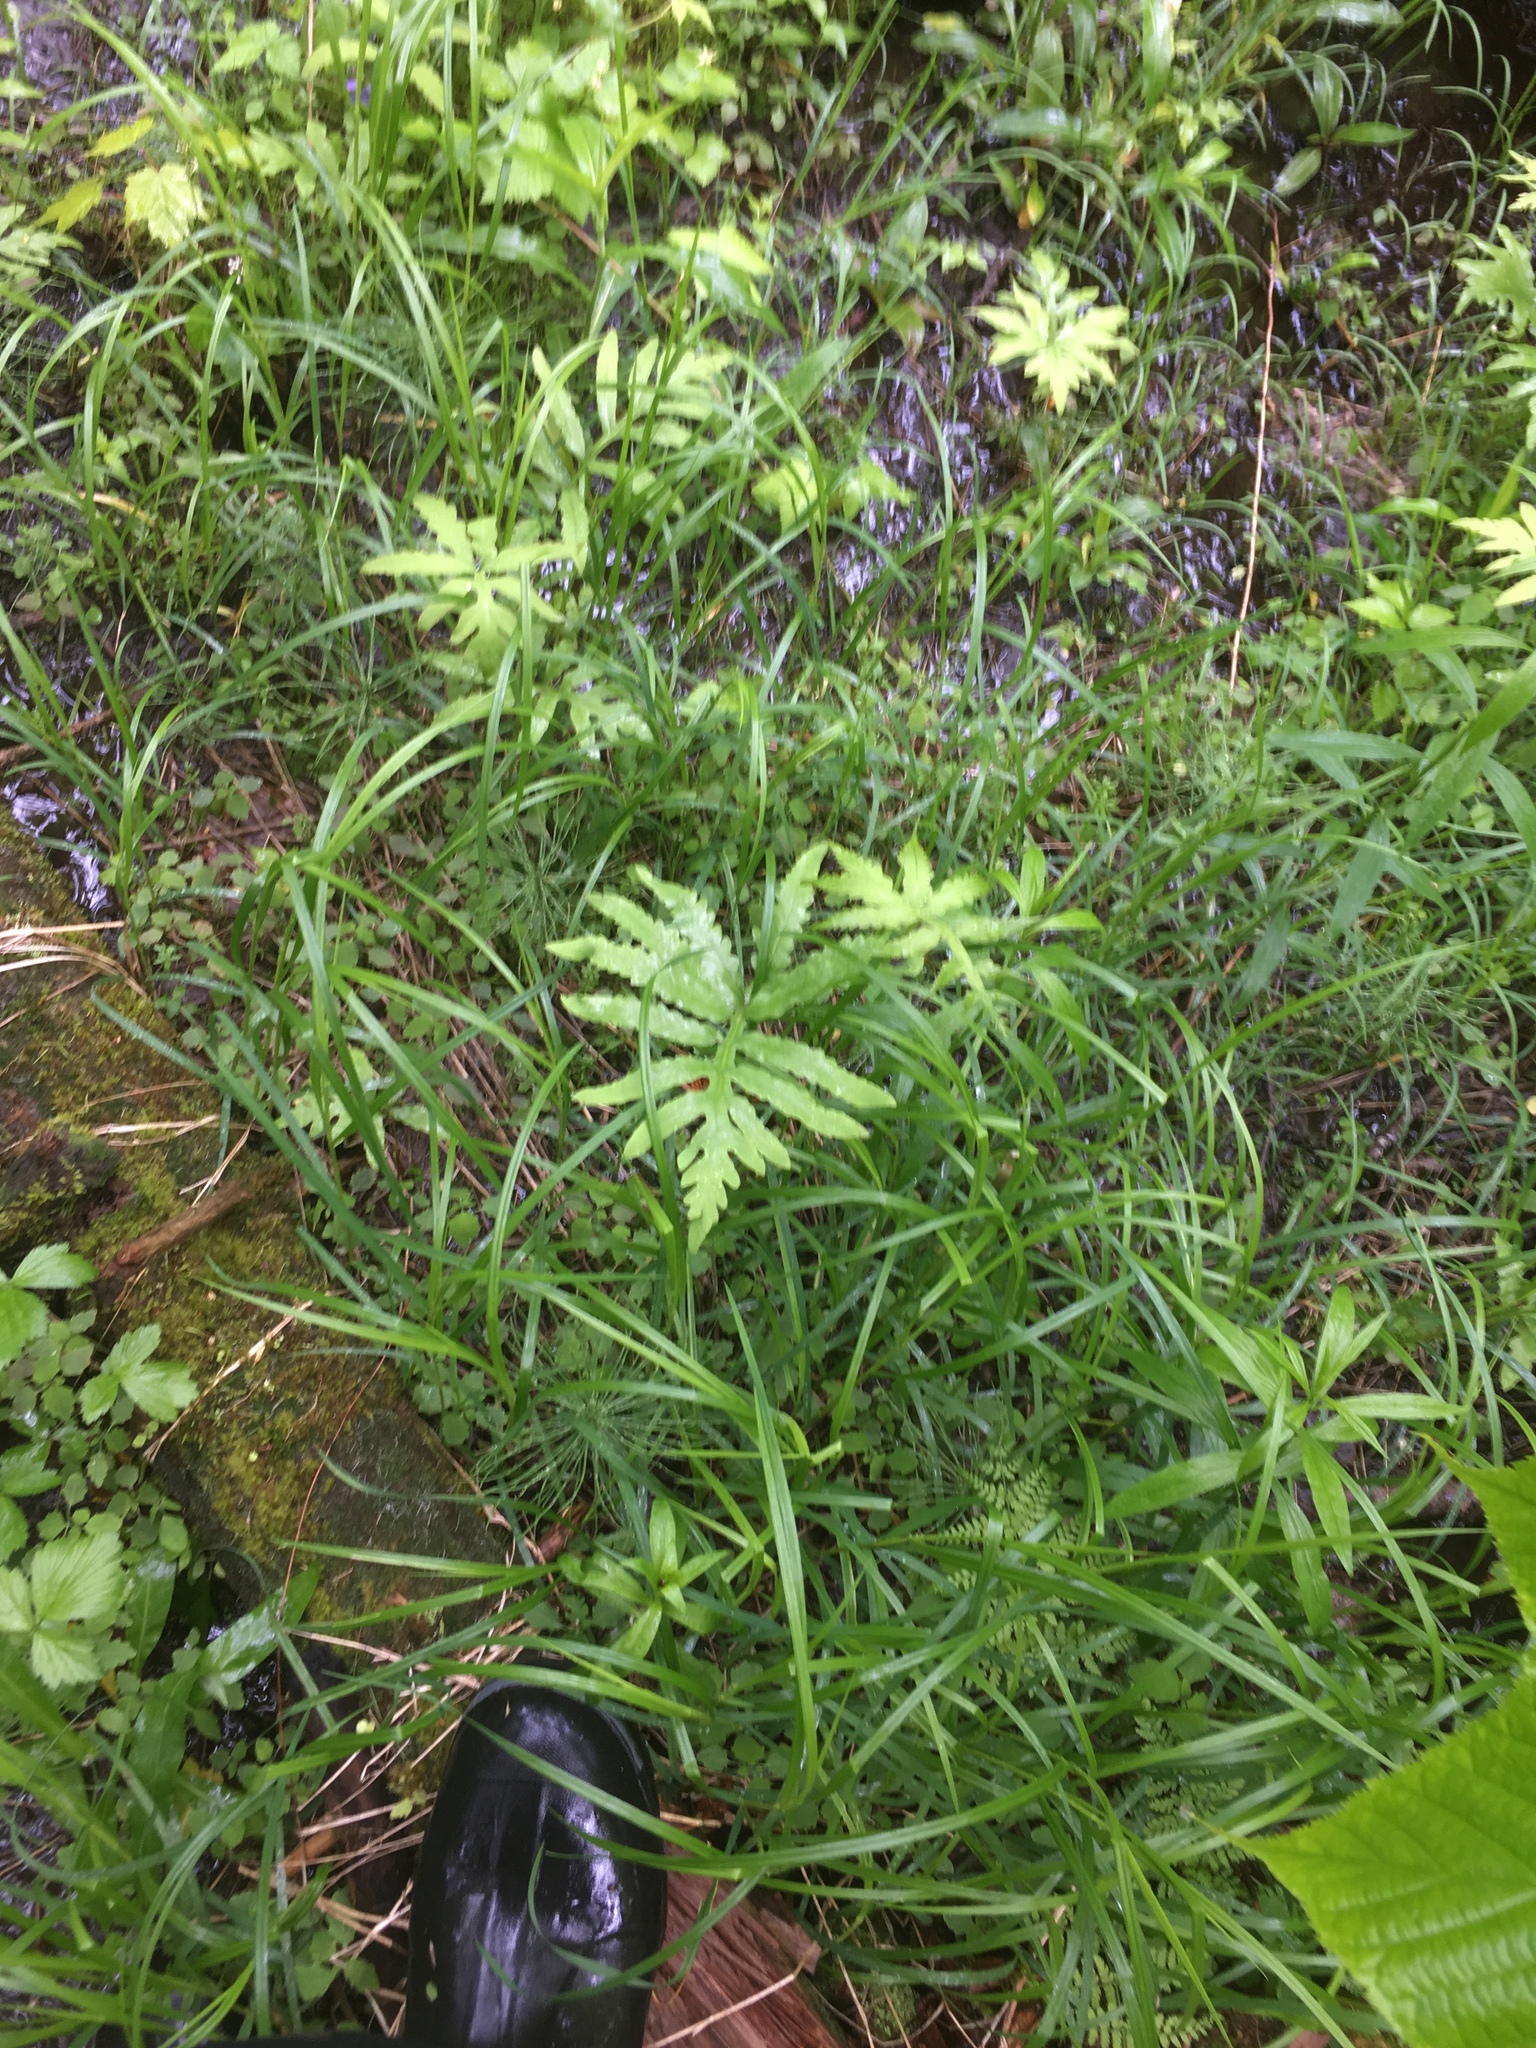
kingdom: Plantae
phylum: Tracheophyta
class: Polypodiopsida
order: Polypodiales
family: Onocleaceae
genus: Onoclea
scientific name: Onoclea sensibilis
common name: Sensitive fern
